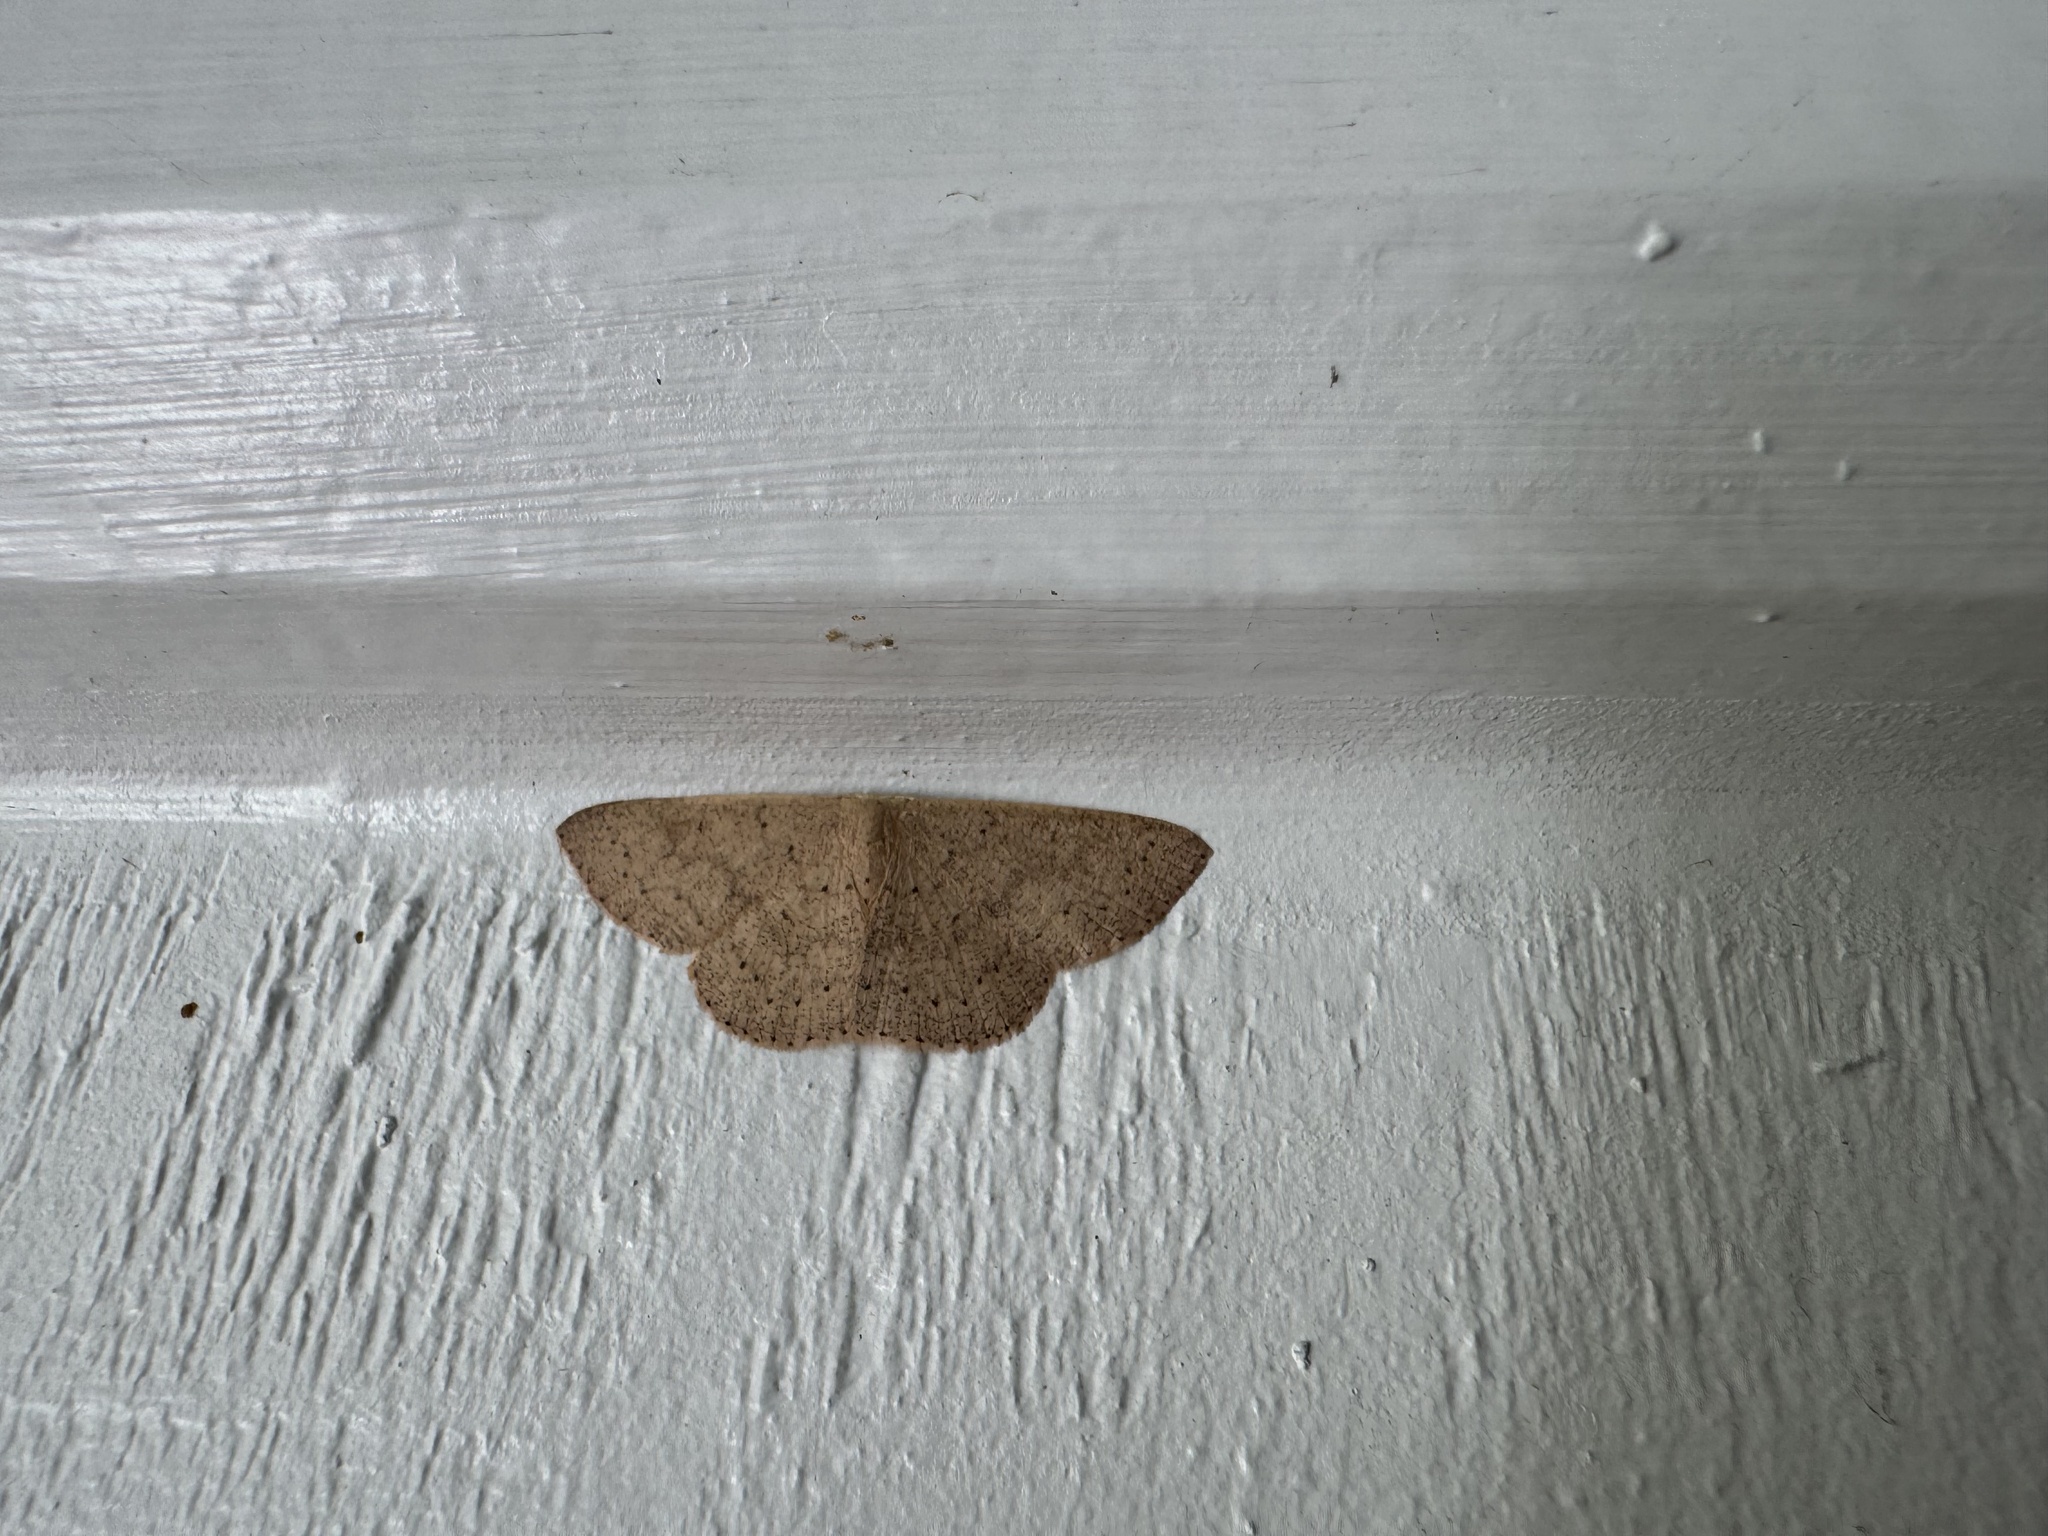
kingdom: Animalia
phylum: Arthropoda
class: Insecta
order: Lepidoptera
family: Geometridae
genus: Cyclophora
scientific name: Cyclophora obstataria
